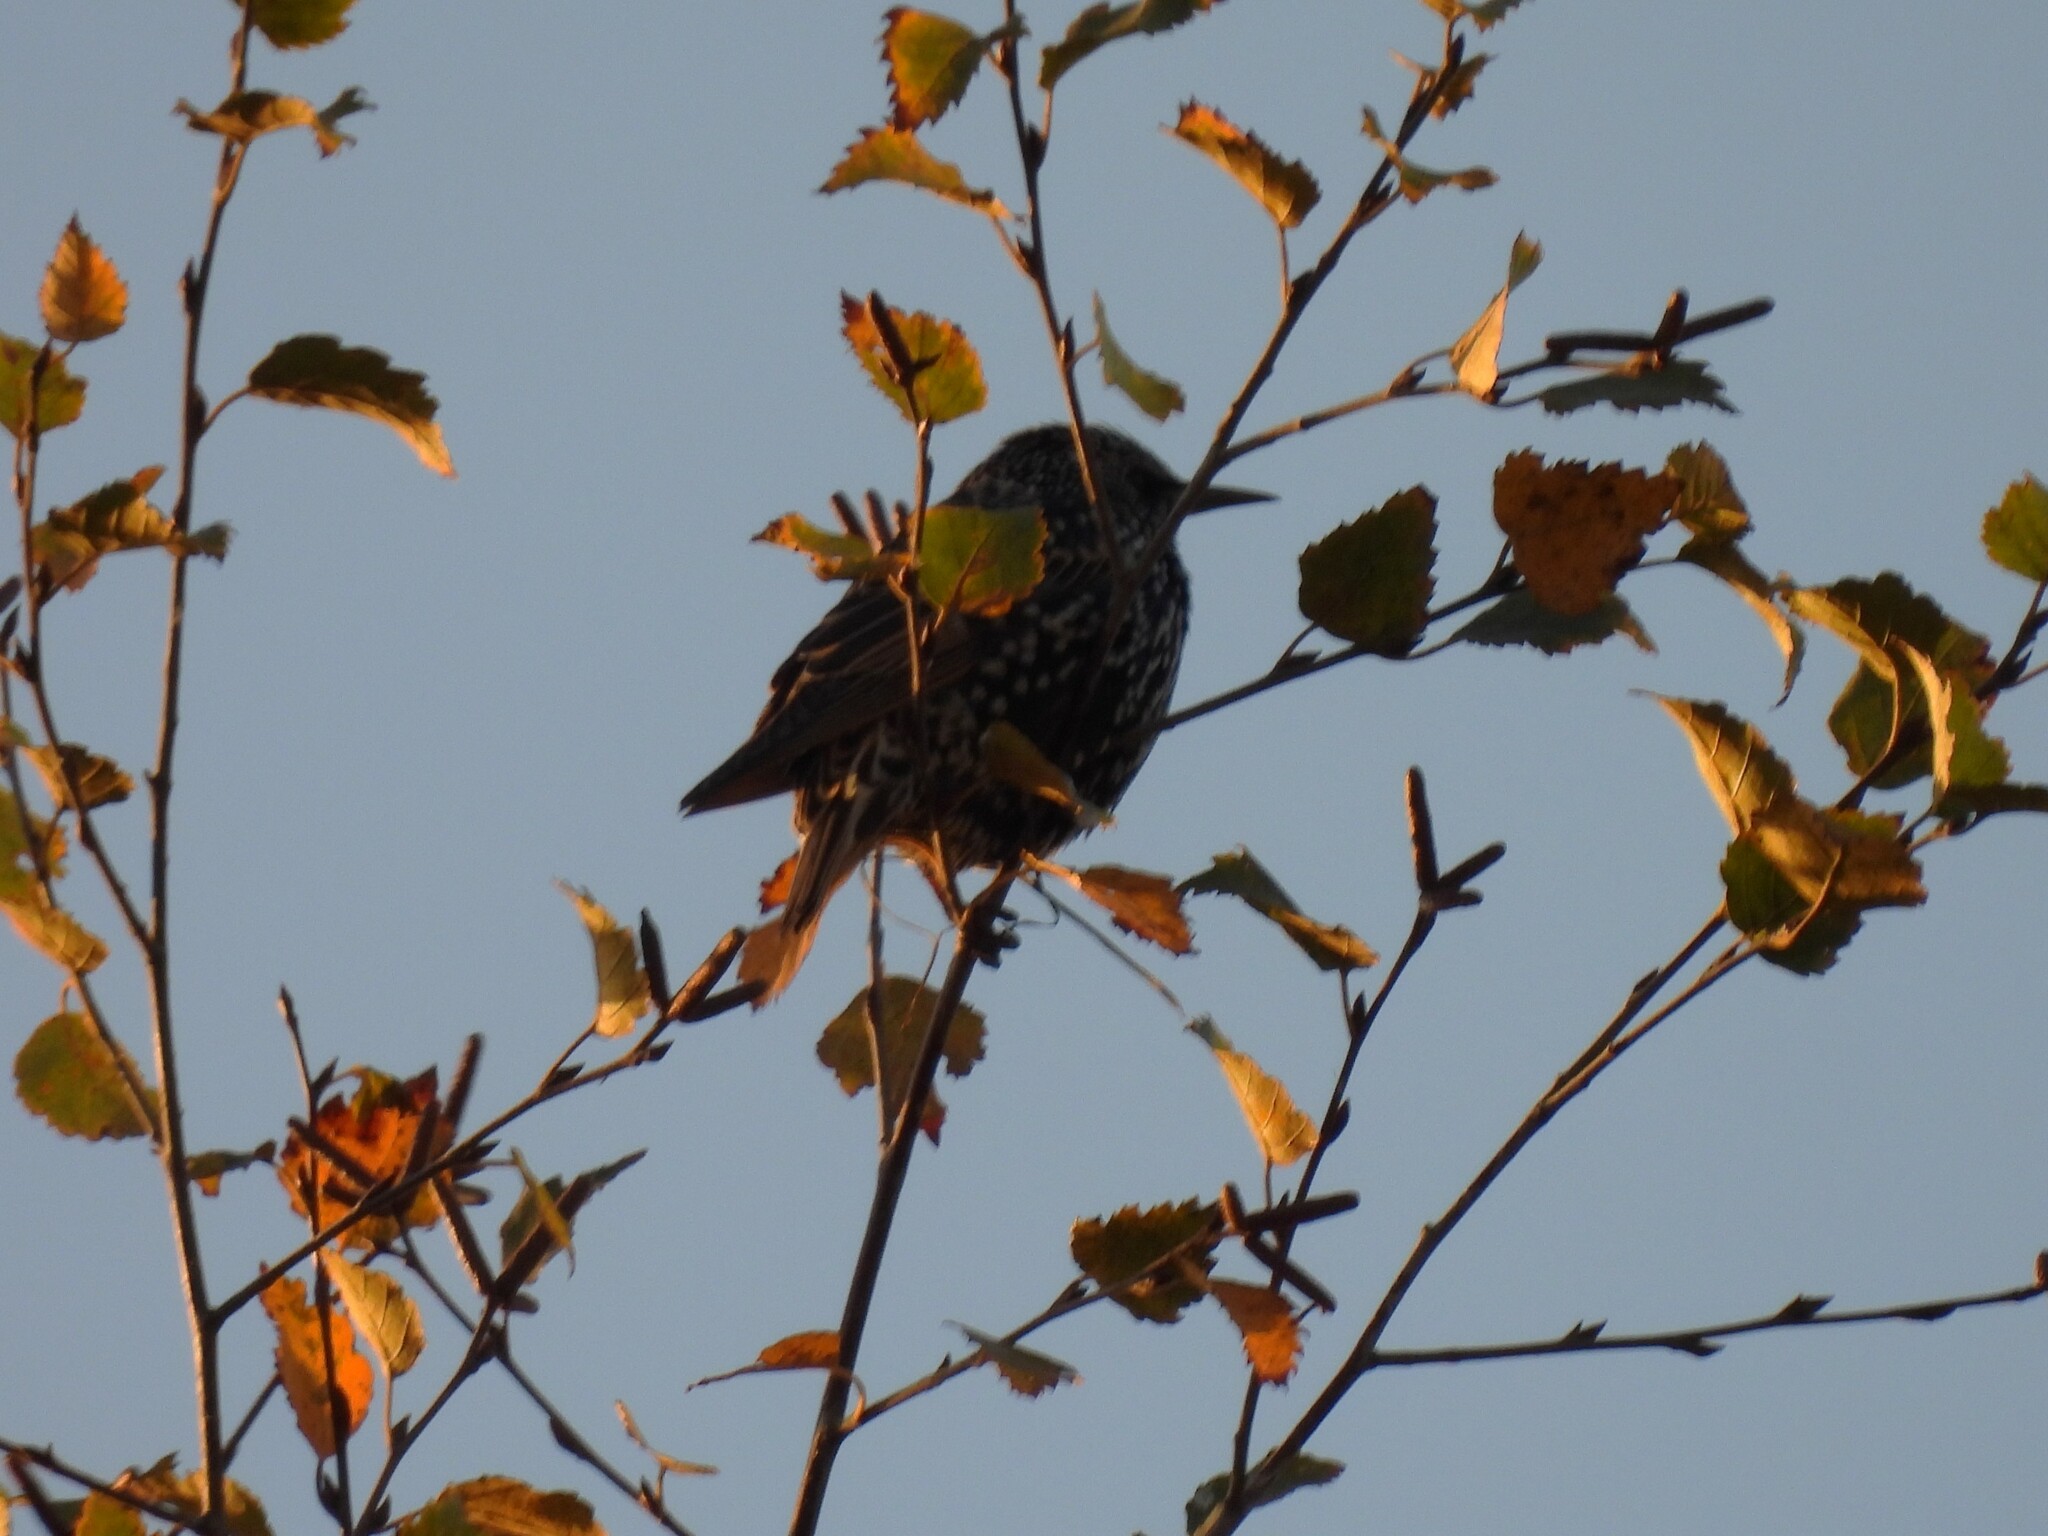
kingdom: Animalia
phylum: Chordata
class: Aves
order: Passeriformes
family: Sturnidae
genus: Sturnus
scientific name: Sturnus vulgaris
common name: Common starling
